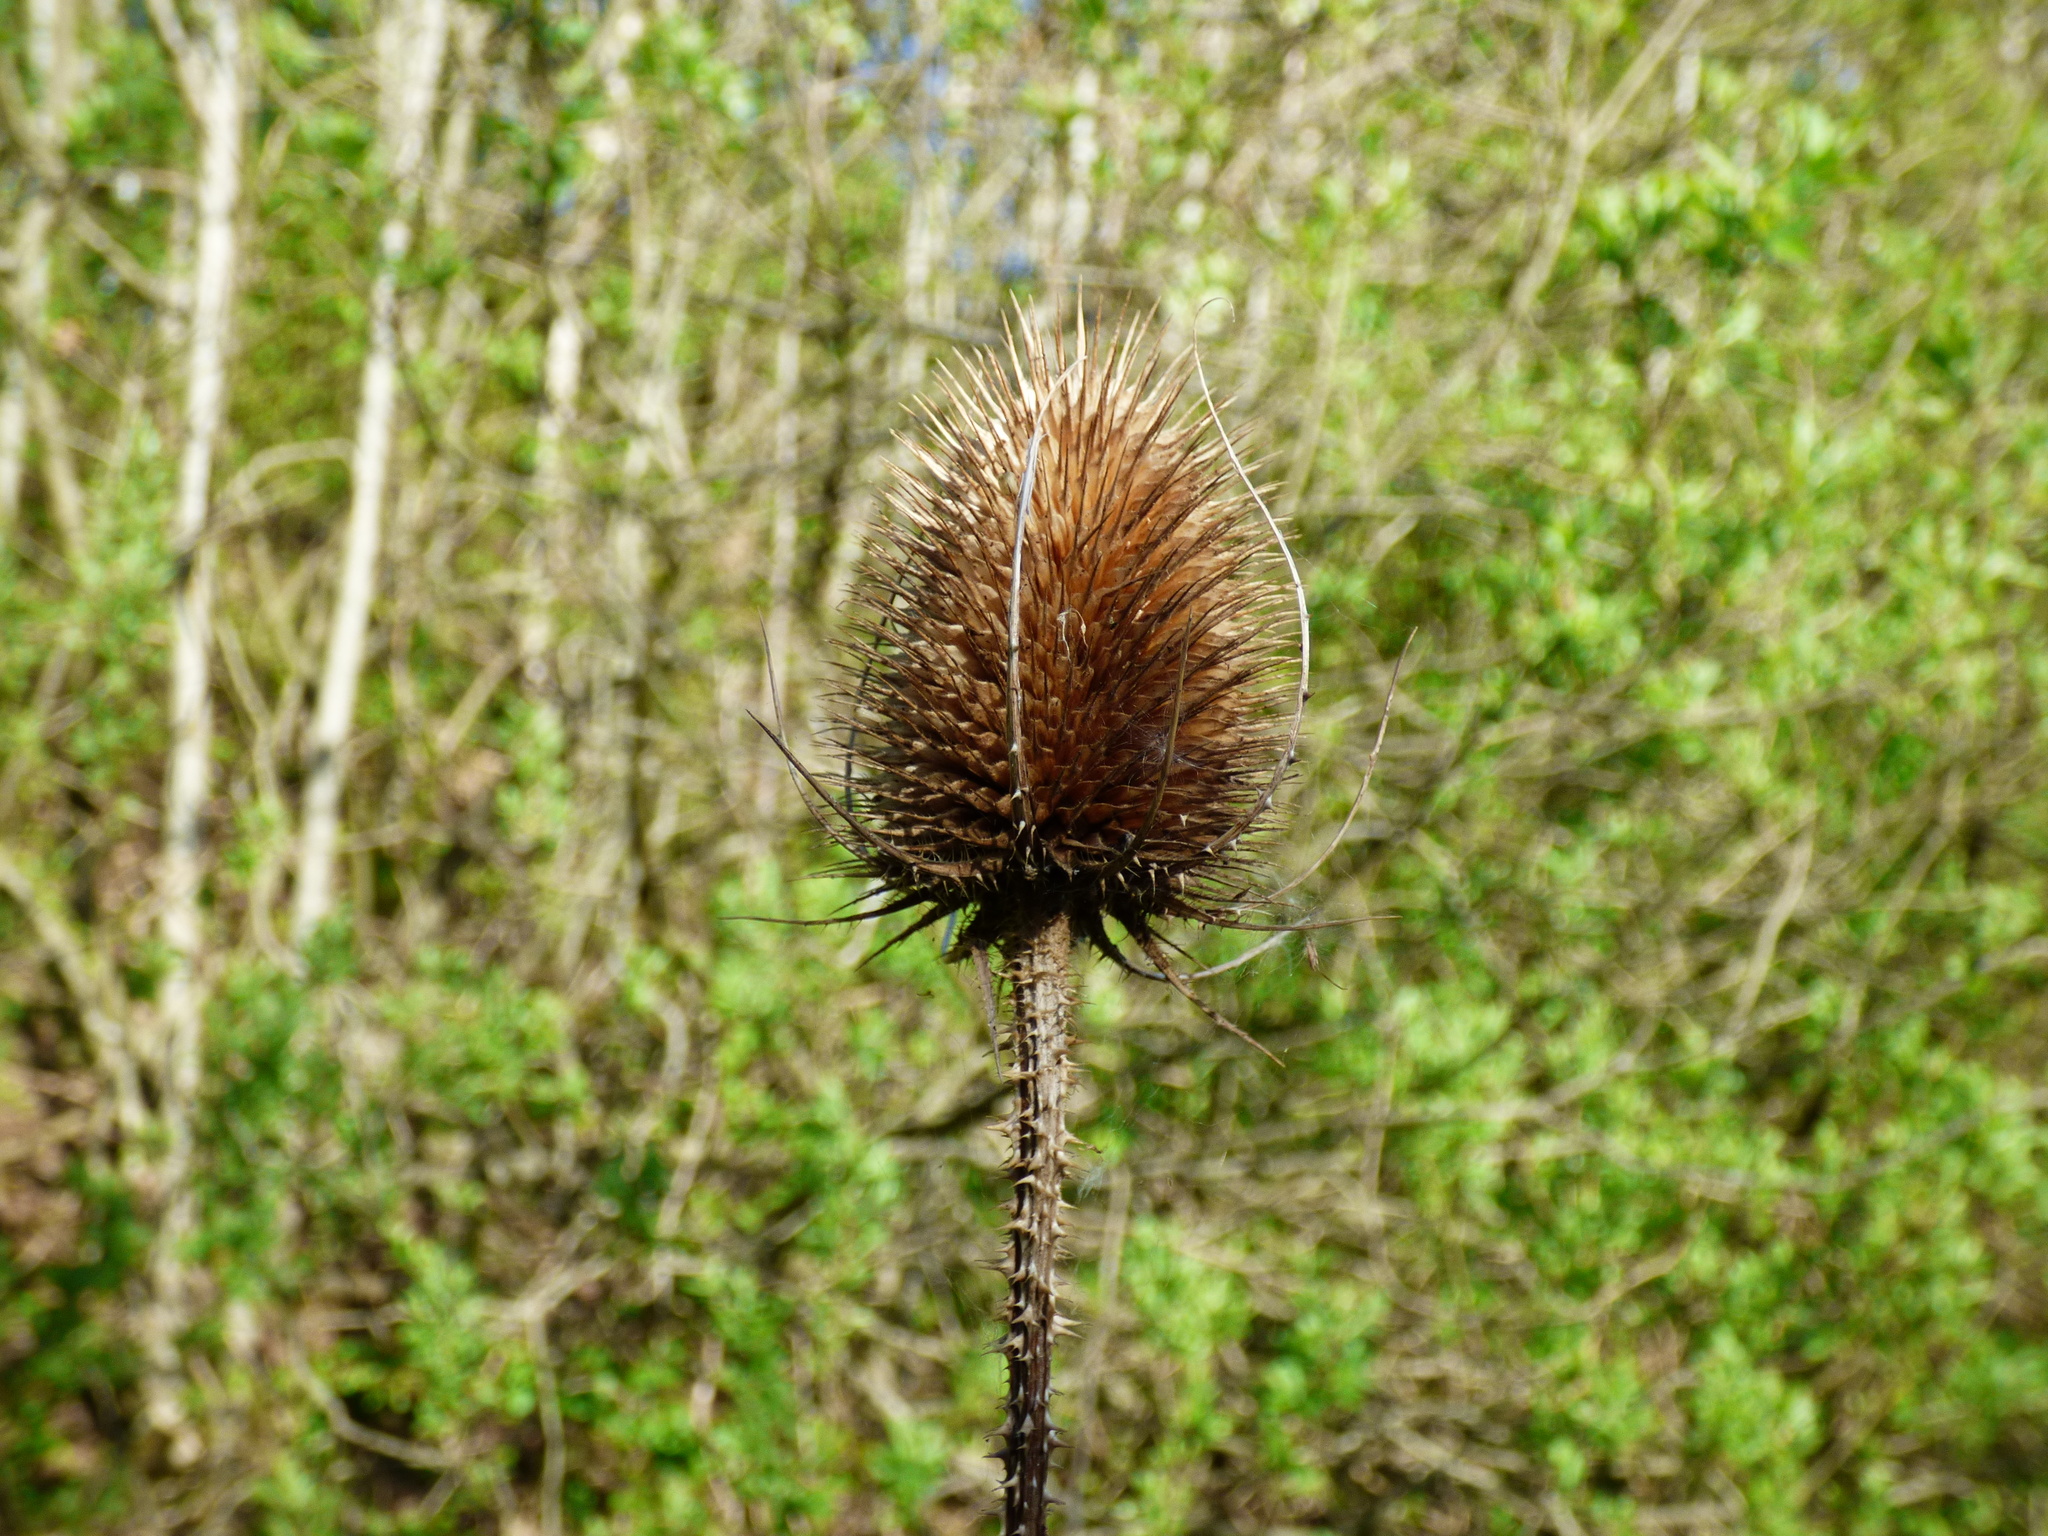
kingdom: Plantae
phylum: Tracheophyta
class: Magnoliopsida
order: Dipsacales
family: Caprifoliaceae
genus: Dipsacus
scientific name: Dipsacus fullonum
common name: Teasel
